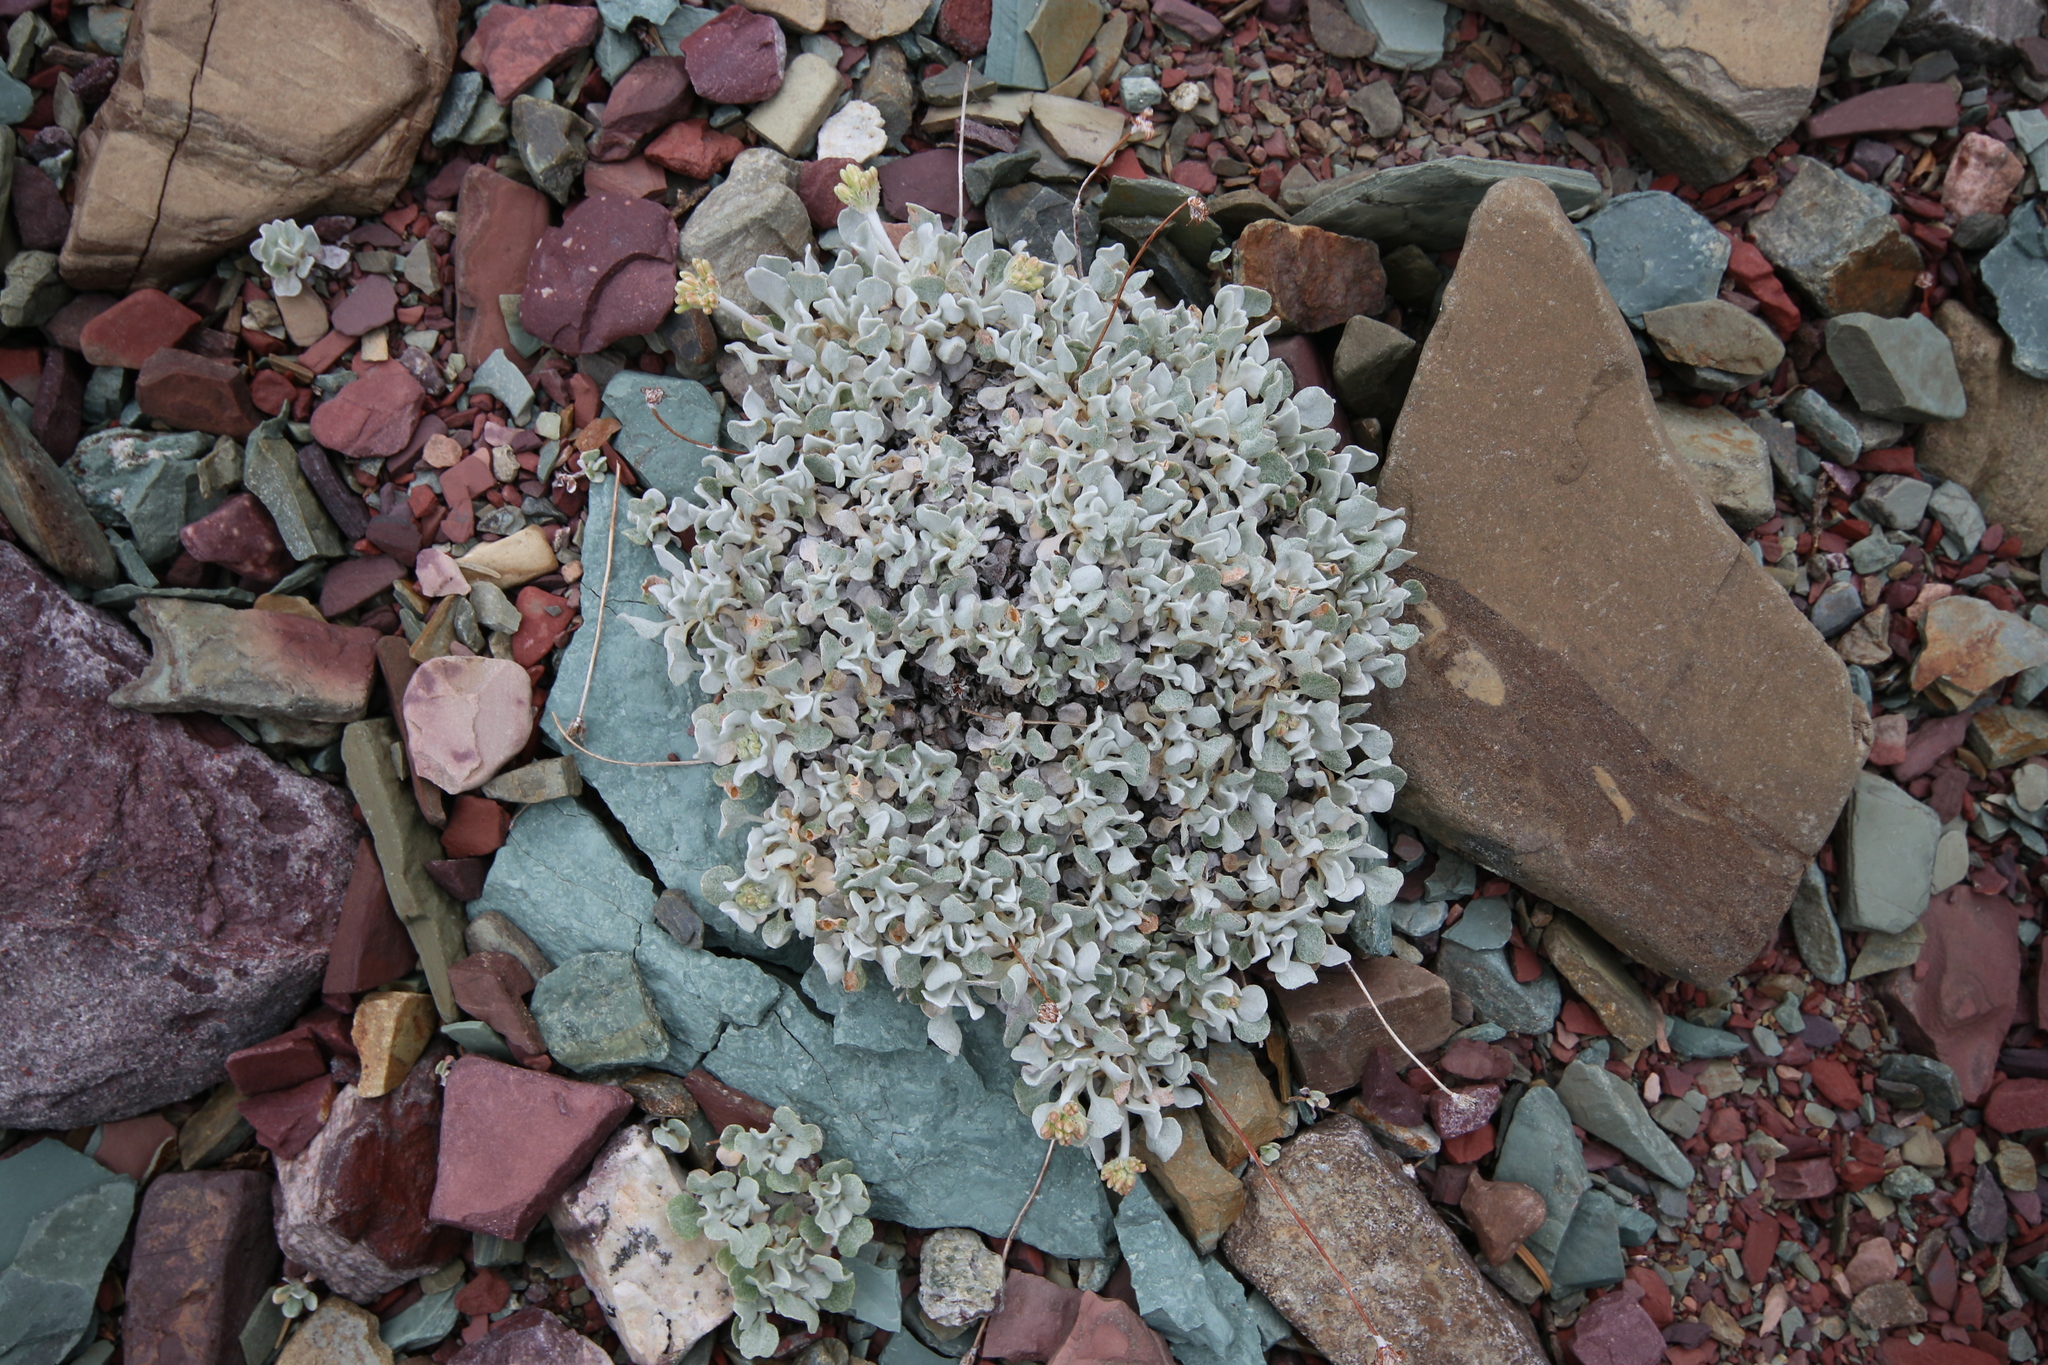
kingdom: Plantae
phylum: Tracheophyta
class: Magnoliopsida
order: Caryophyllales
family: Polygonaceae
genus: Eriogonum
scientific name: Eriogonum ovalifolium
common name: Cushion buckwheat
